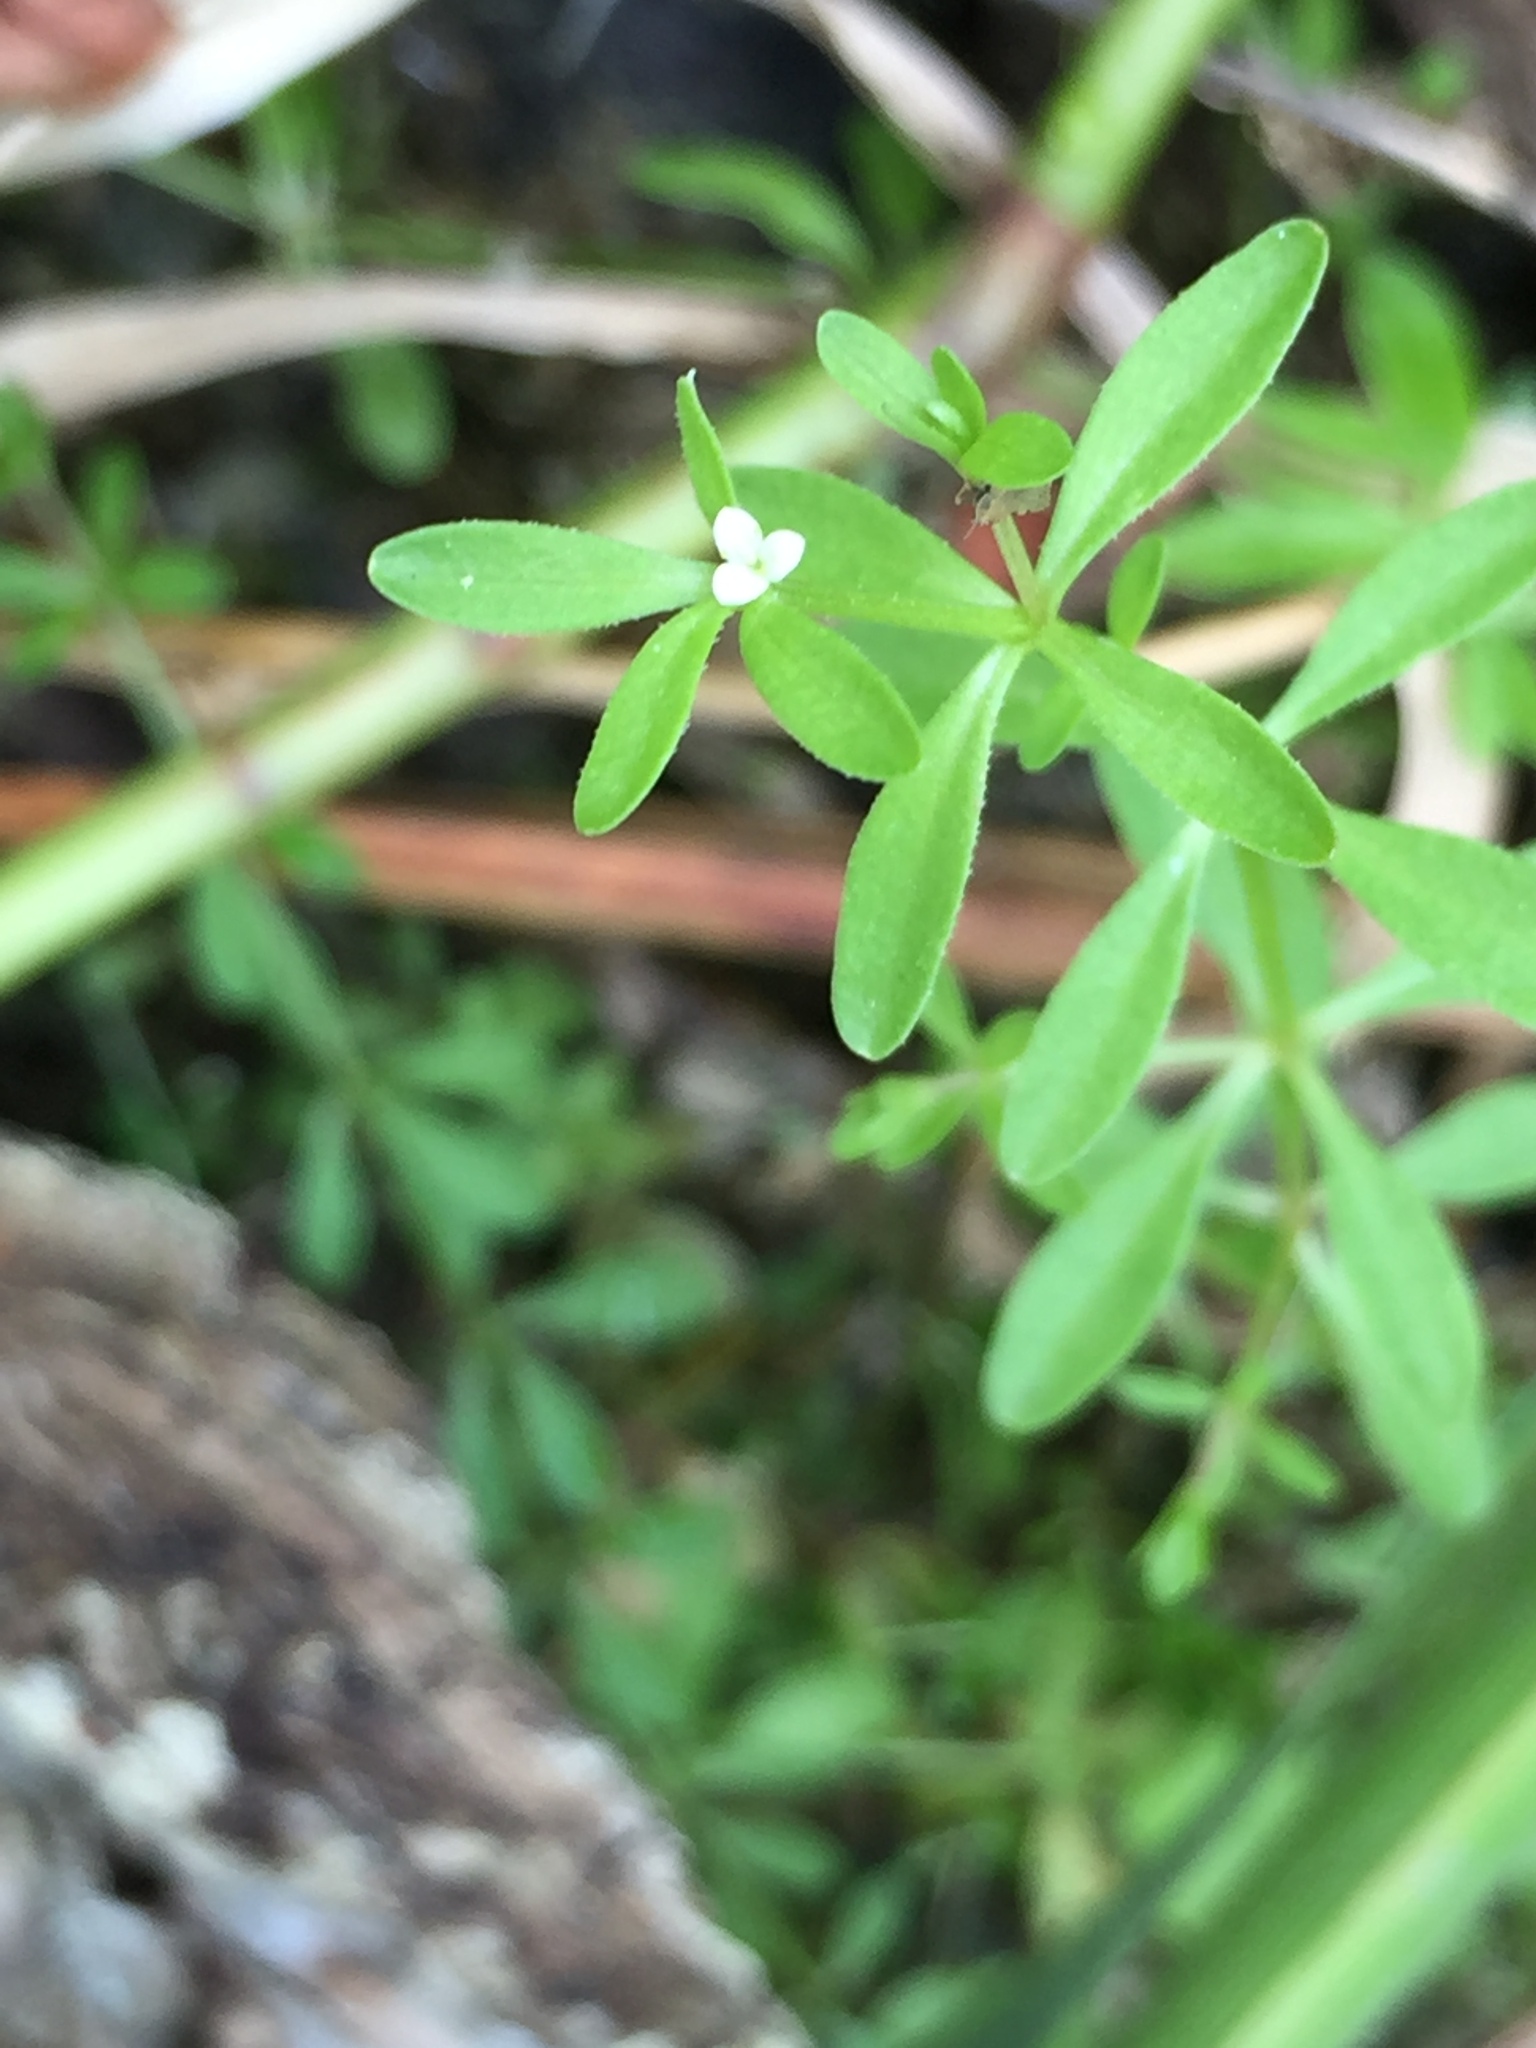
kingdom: Plantae
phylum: Tracheophyta
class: Magnoliopsida
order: Gentianales
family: Rubiaceae
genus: Galium
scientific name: Galium trifidum
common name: Small bedstraw
